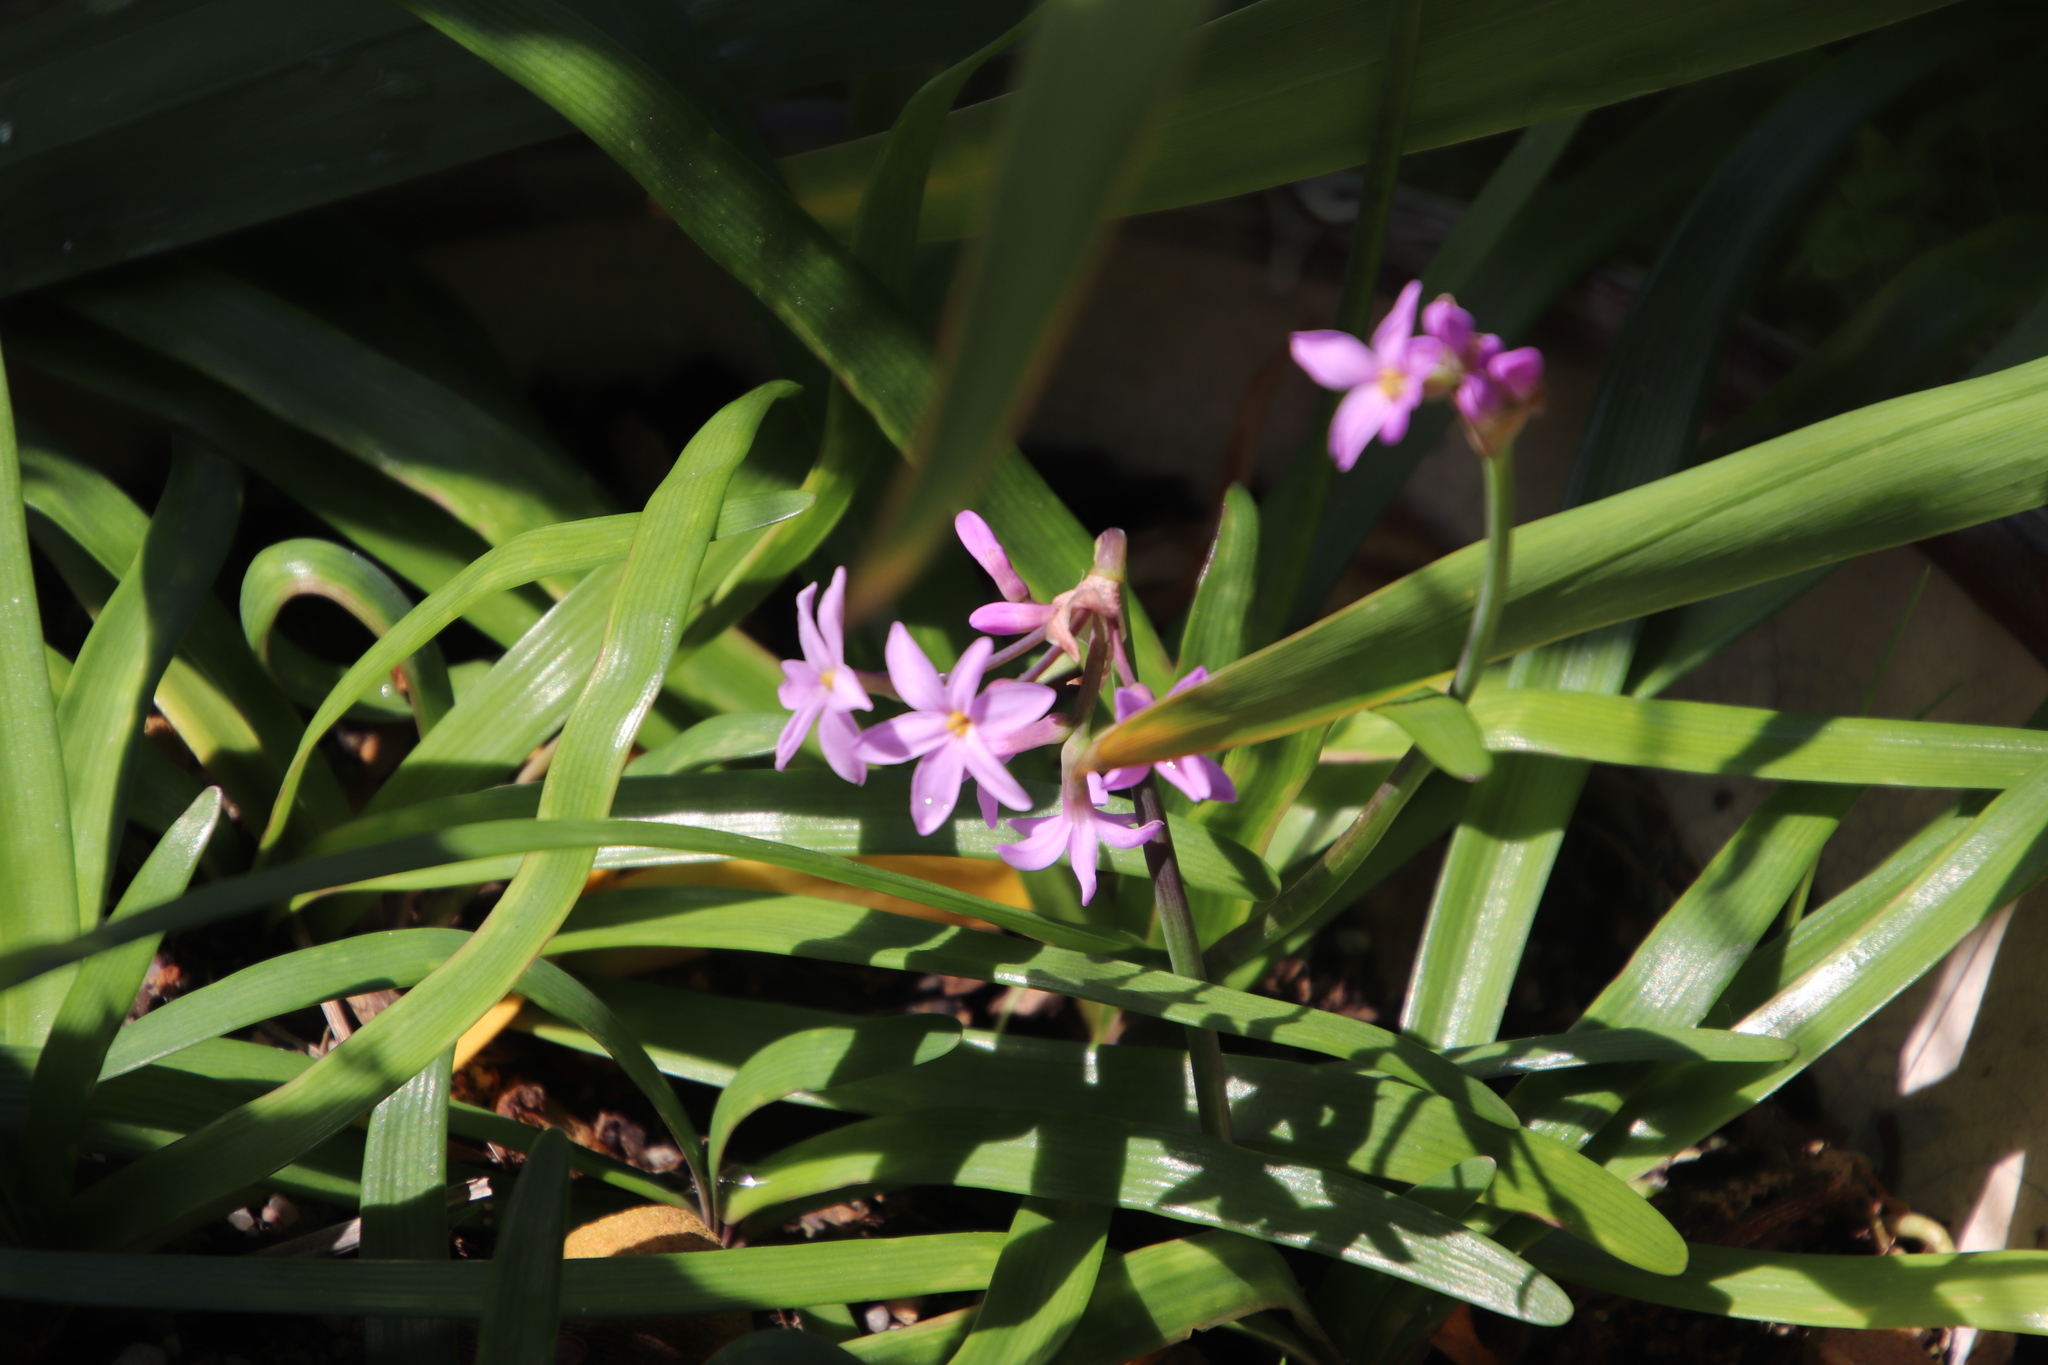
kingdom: Plantae
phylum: Tracheophyta
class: Liliopsida
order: Asparagales
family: Amaryllidaceae
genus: Tulbaghia
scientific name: Tulbaghia violacea
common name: Society garlic
